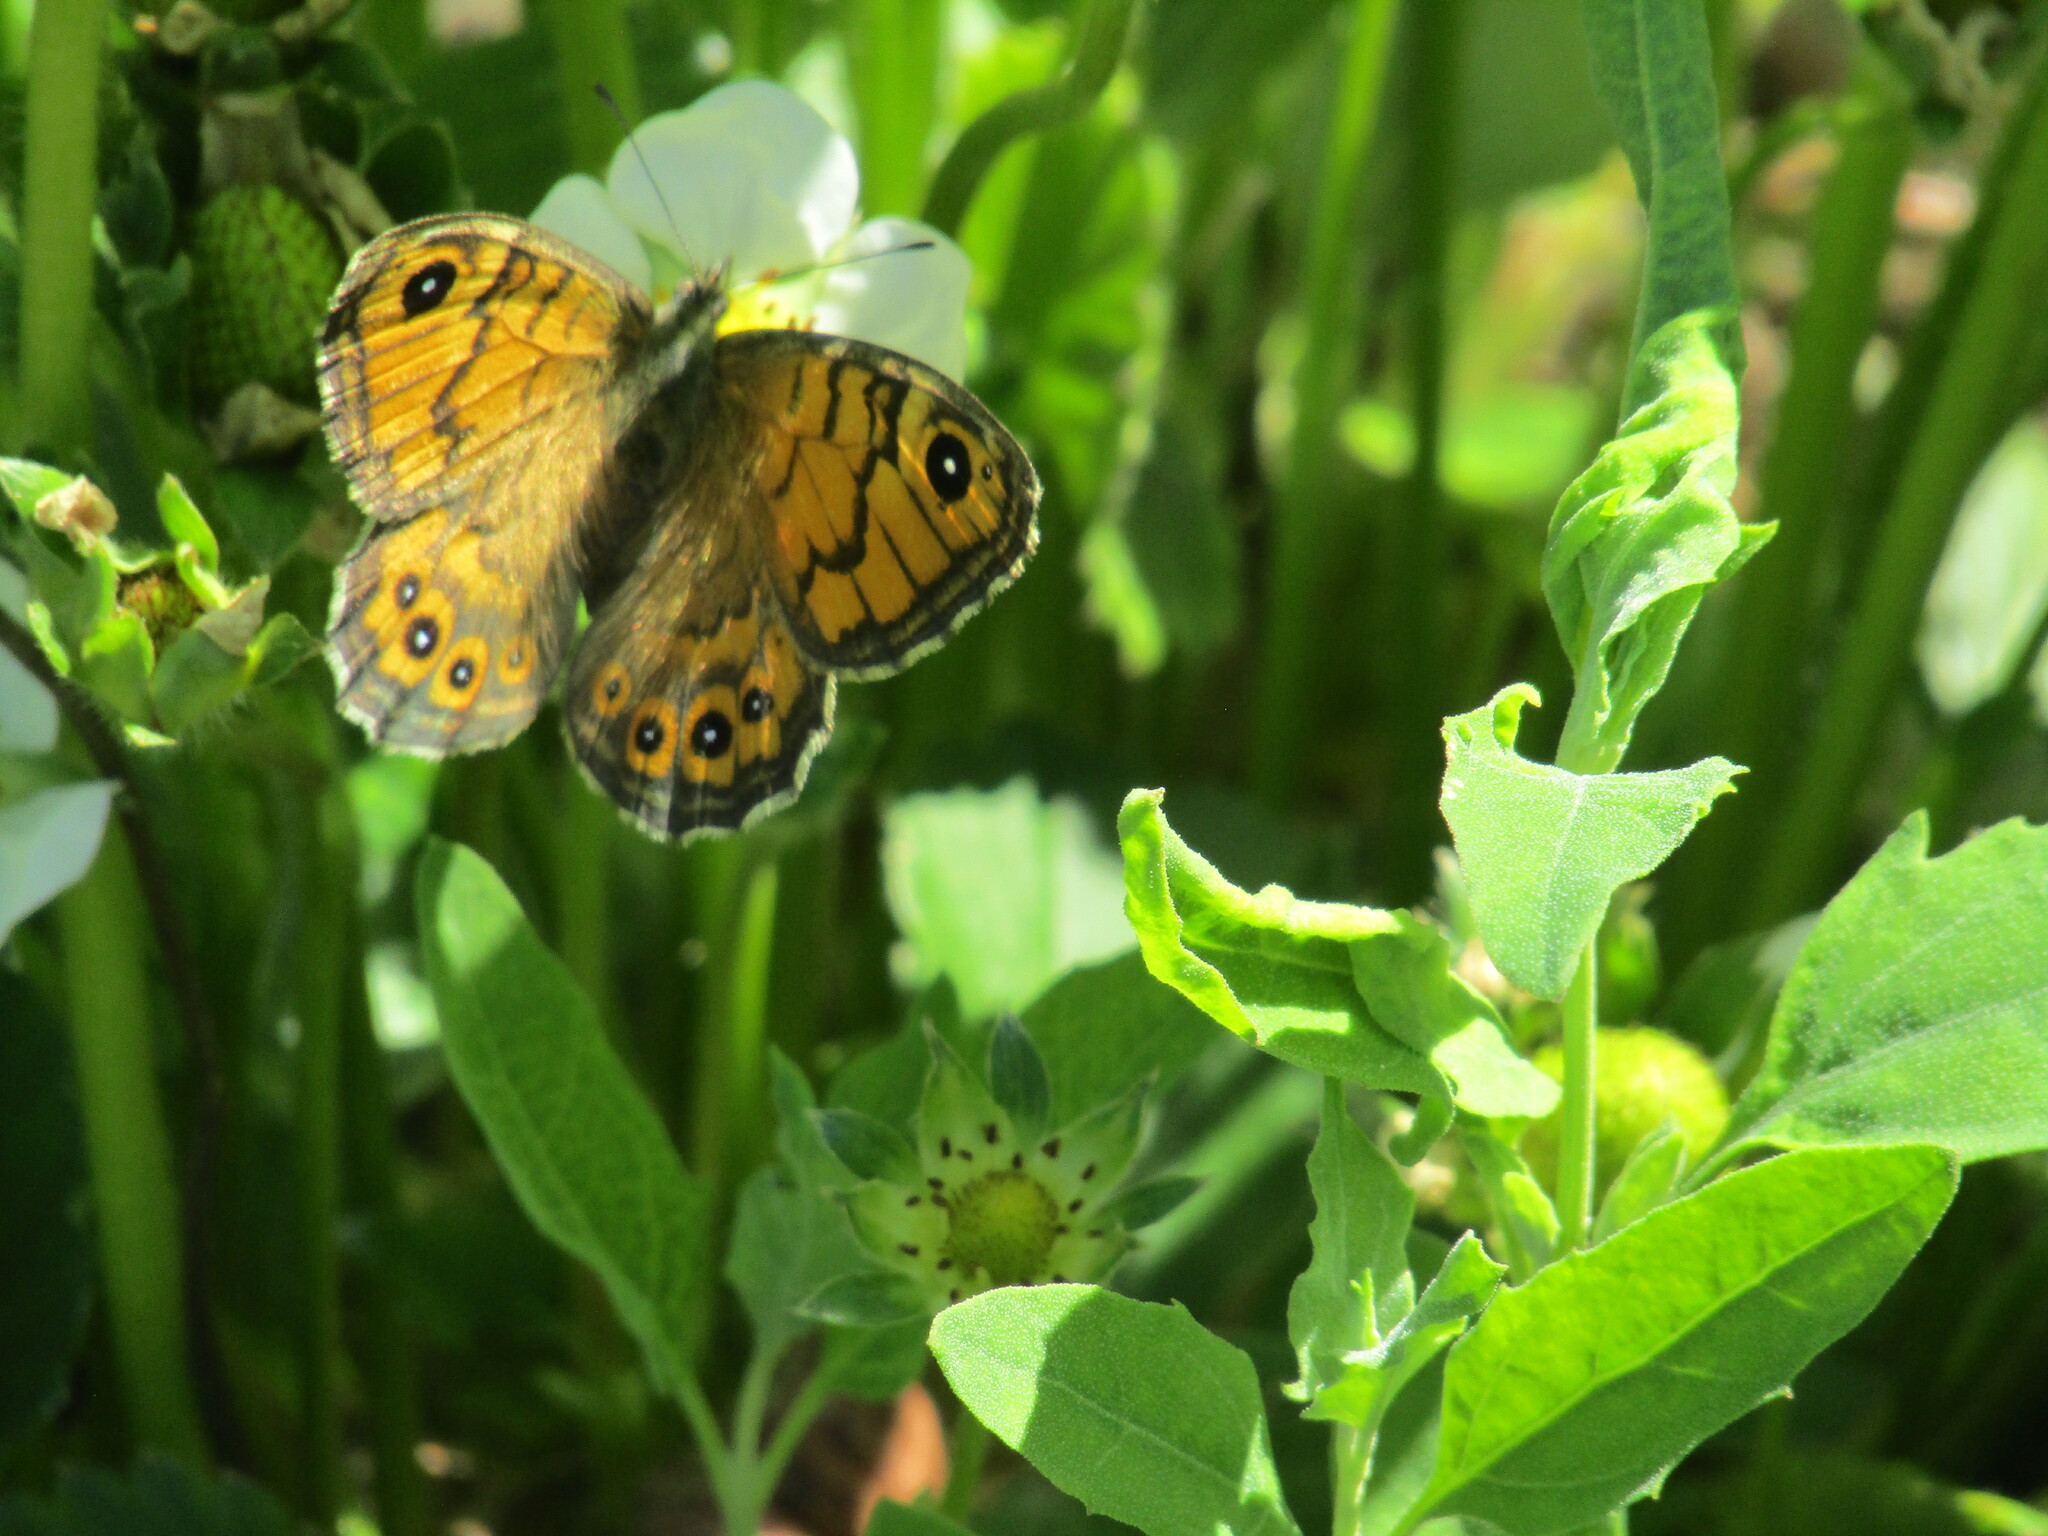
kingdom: Animalia
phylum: Arthropoda
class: Insecta
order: Lepidoptera
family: Nymphalidae
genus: Pararge
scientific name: Pararge Lasiommata megera
